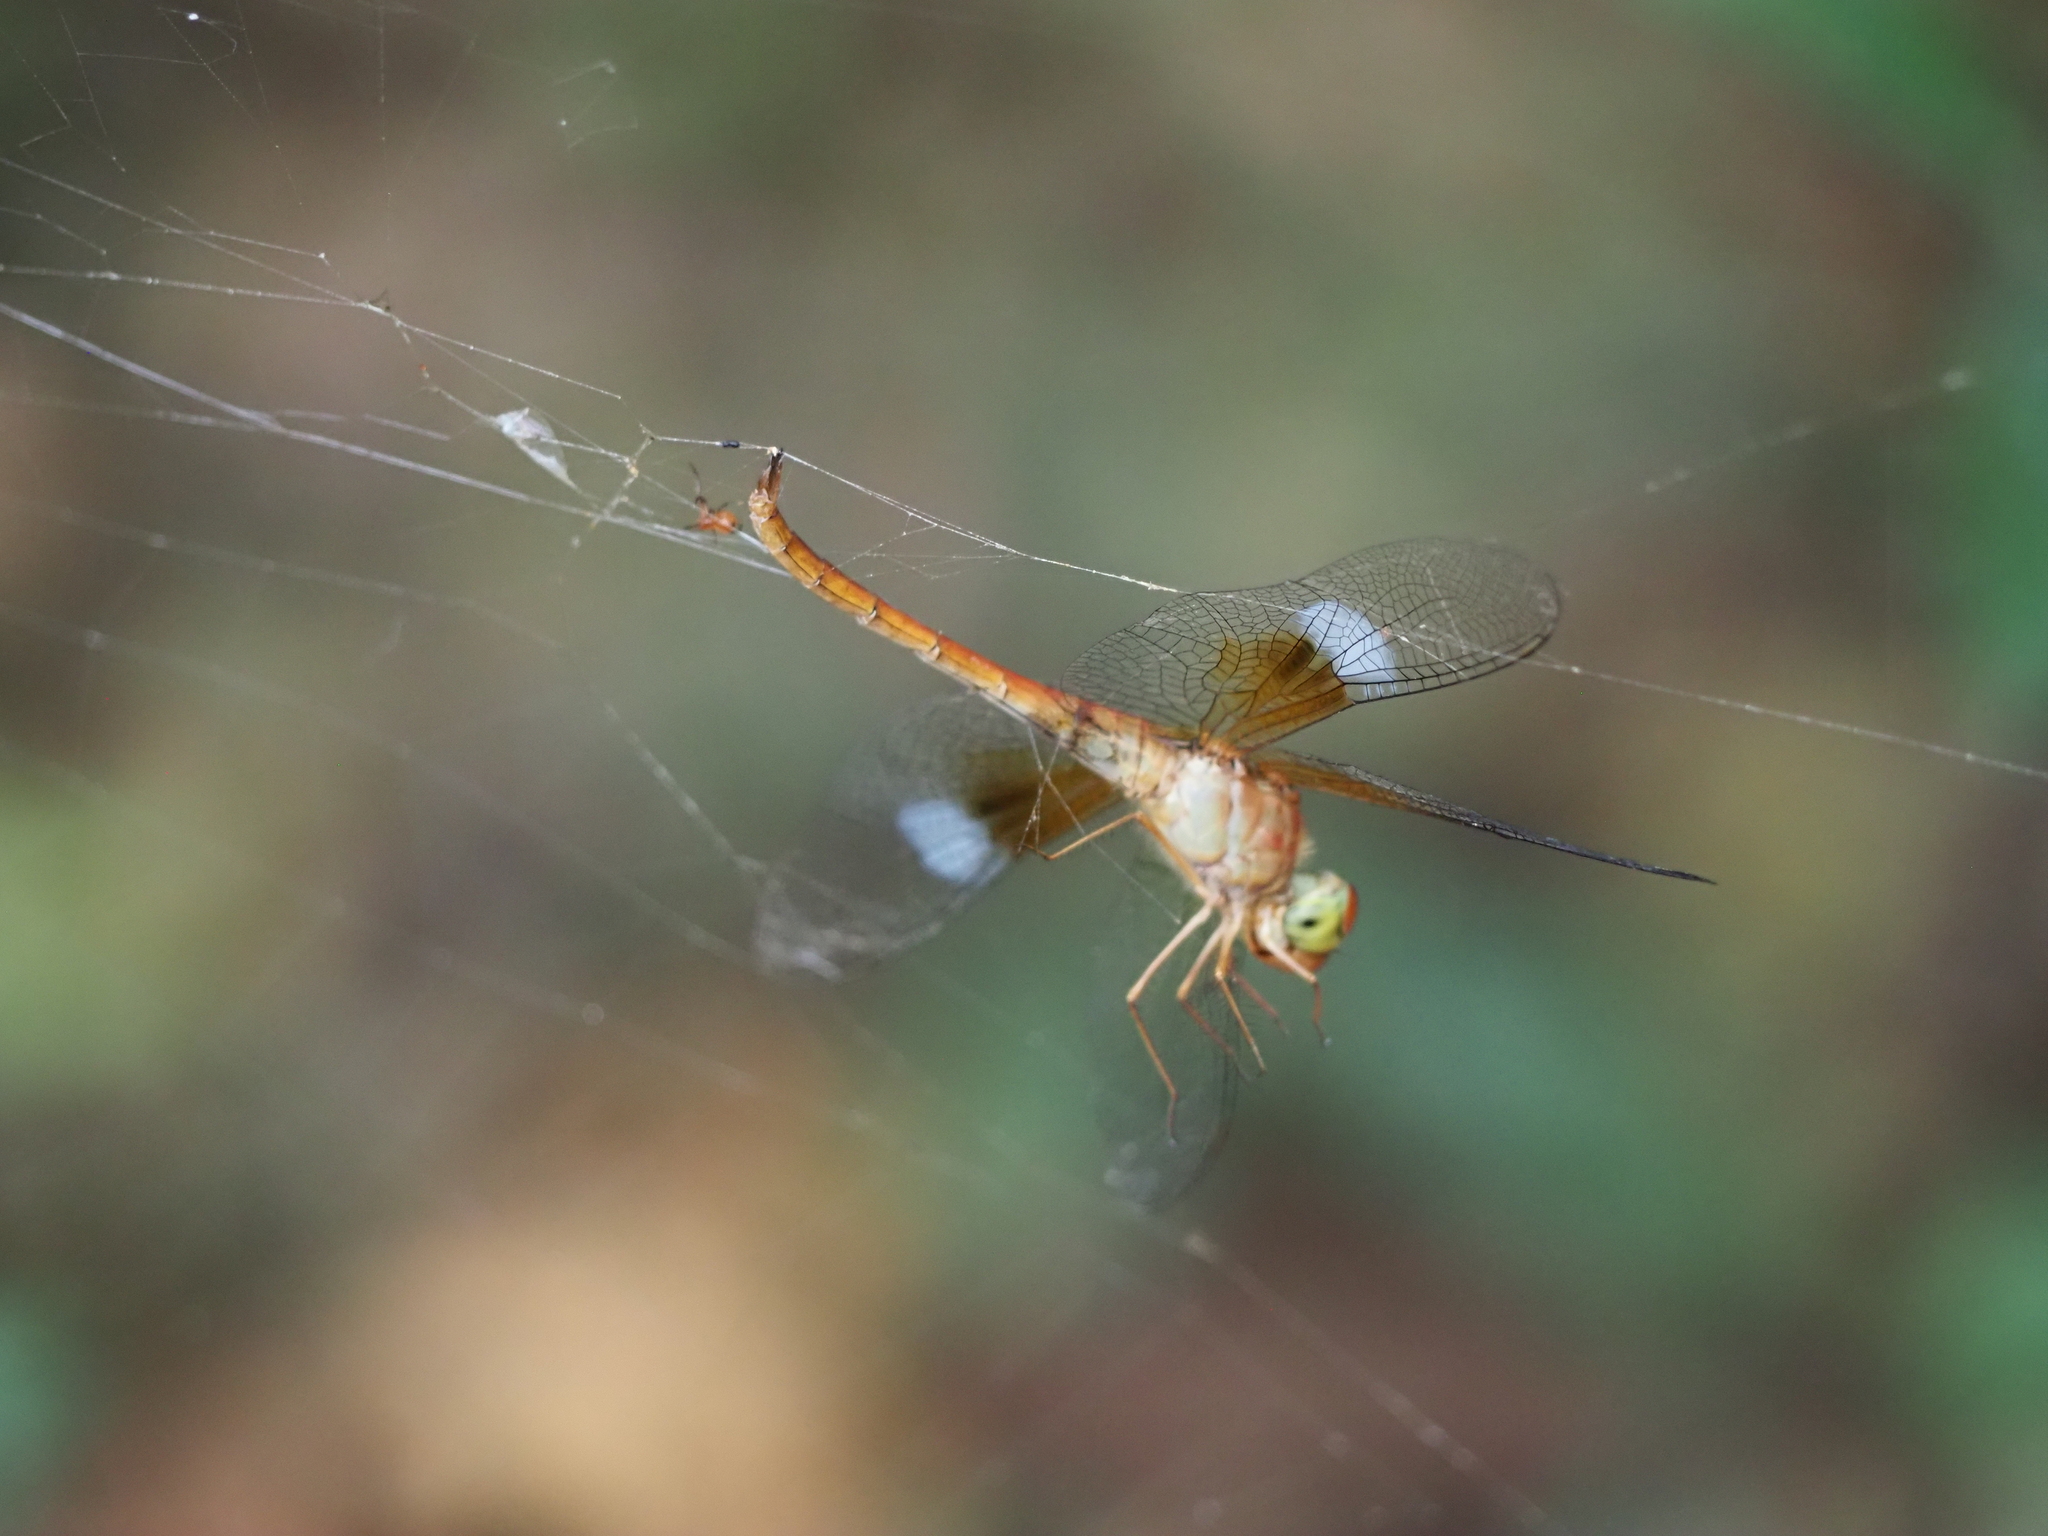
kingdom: Animalia
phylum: Arthropoda
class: Insecta
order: Odonata
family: Libellulidae
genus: Tholymis
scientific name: Tholymis tillarga
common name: Coral-tailed cloud wing
